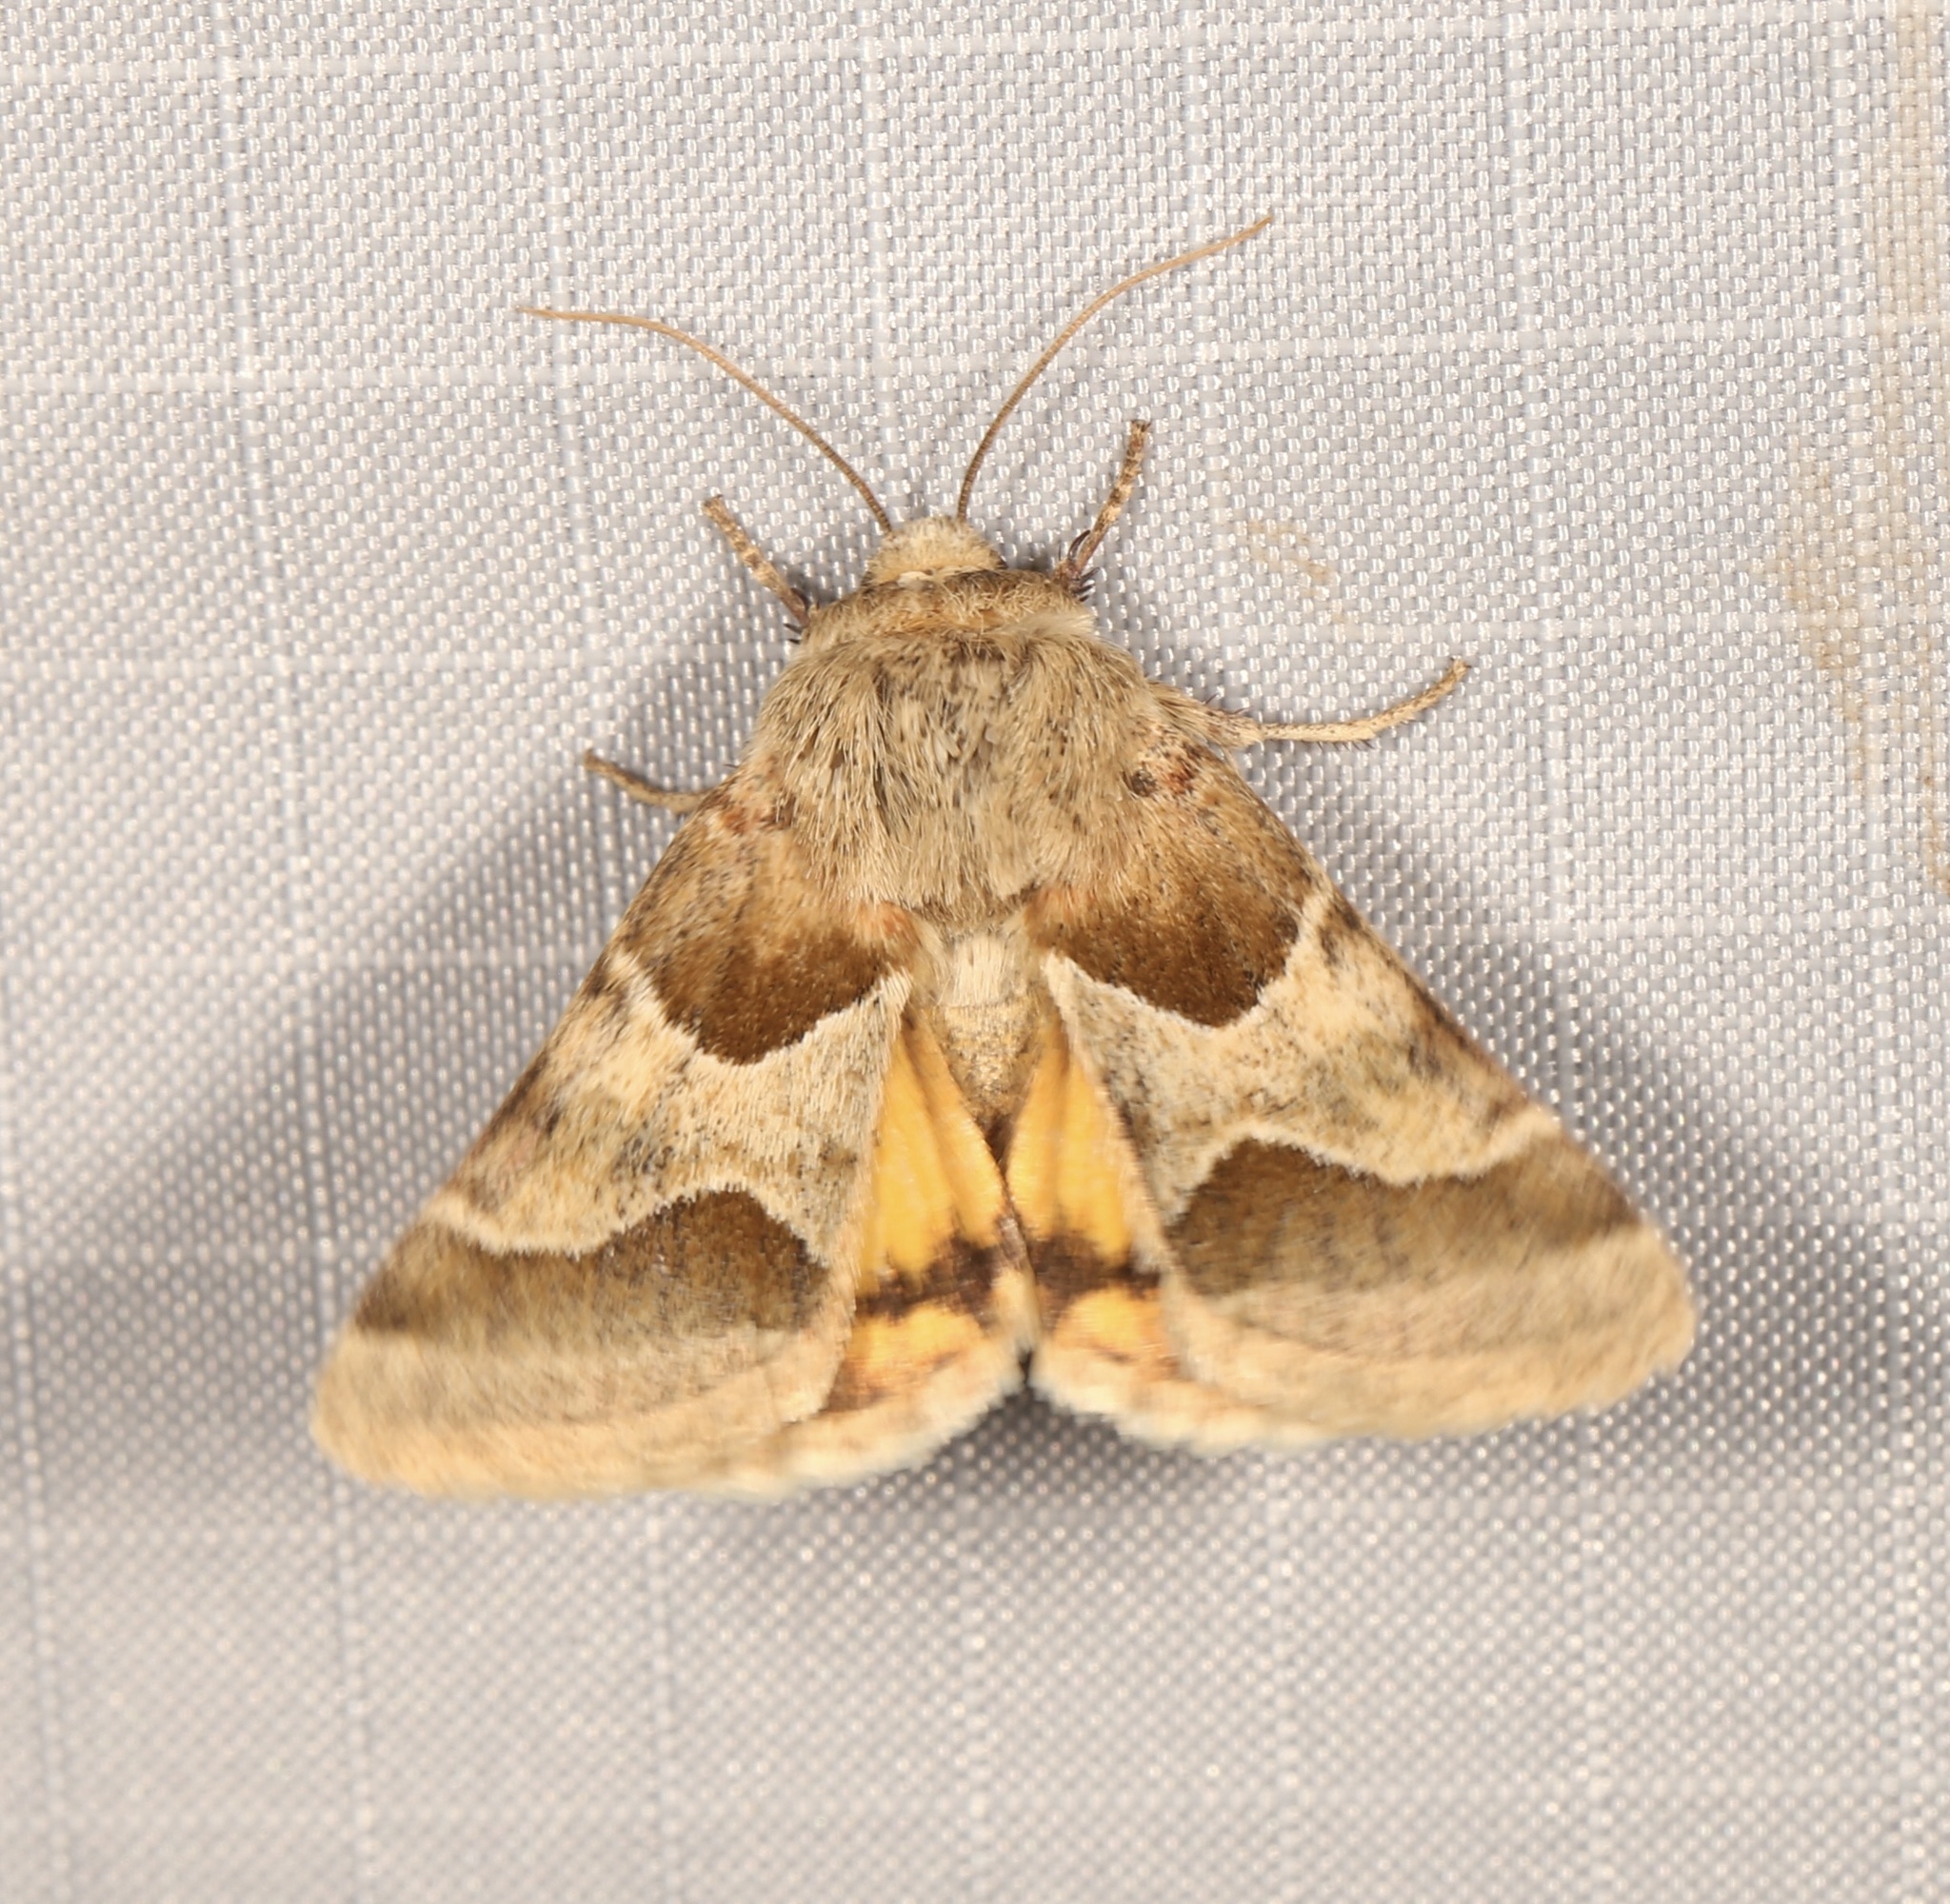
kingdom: Animalia
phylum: Arthropoda
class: Insecta
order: Lepidoptera
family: Noctuidae
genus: Schinia
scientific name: Schinia jaguarina
